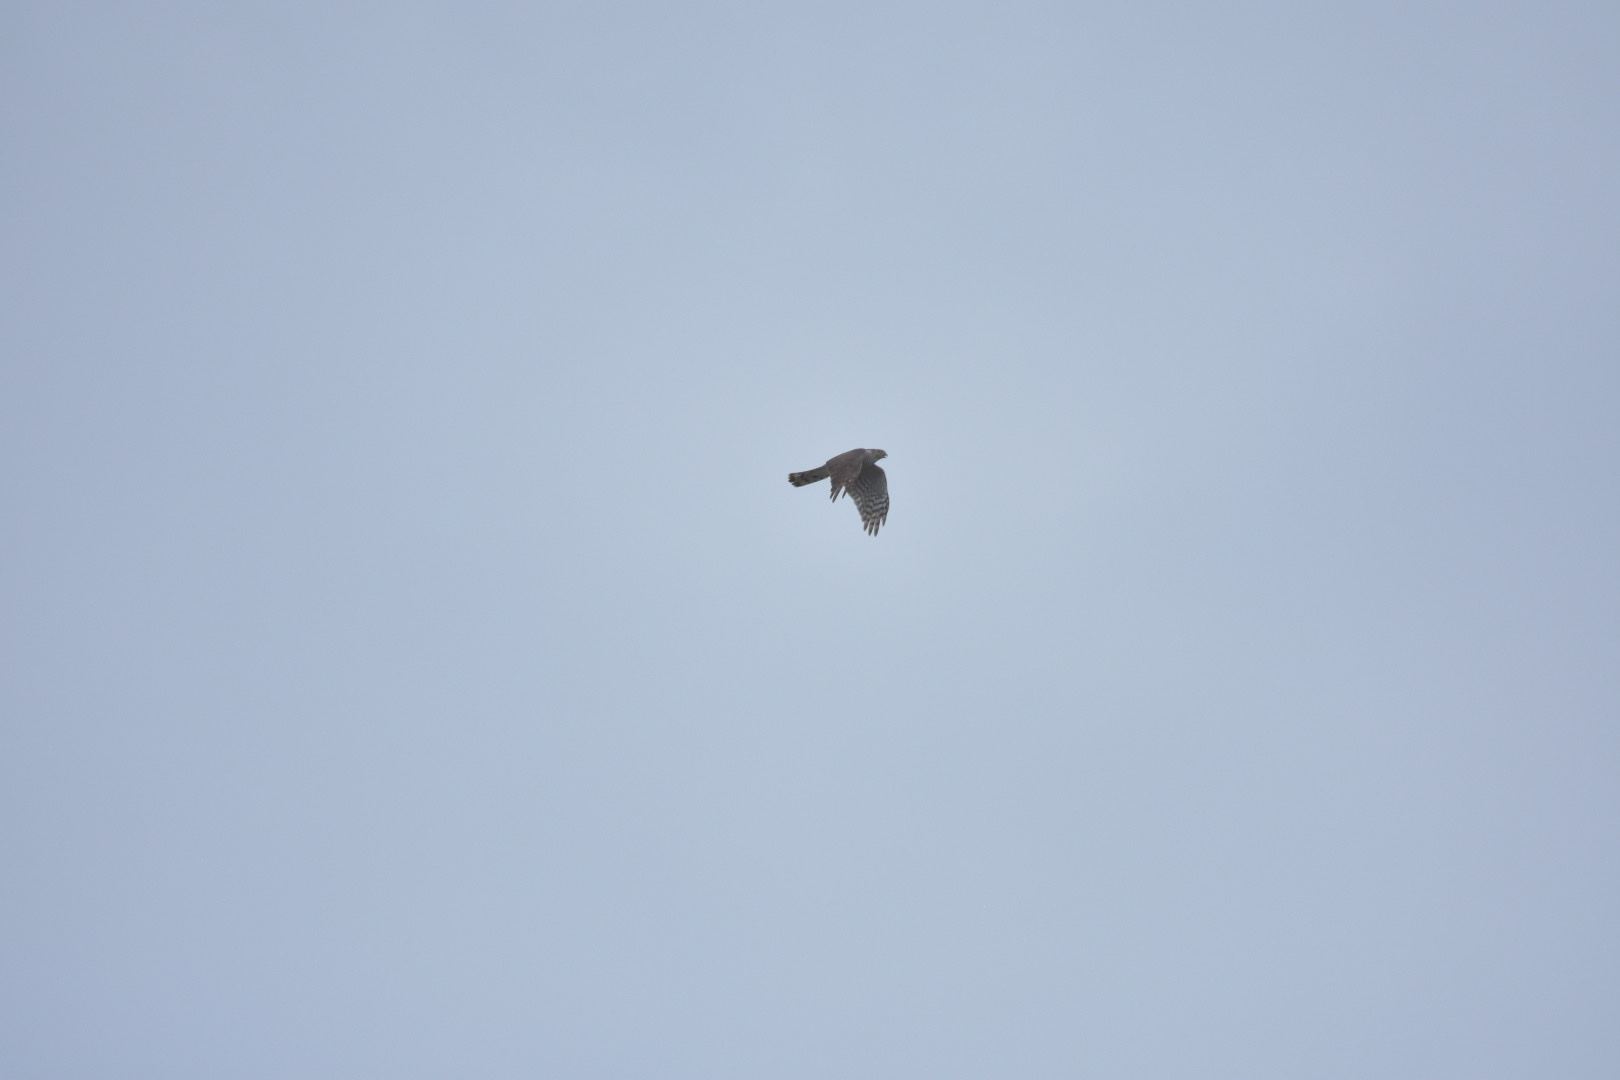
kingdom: Animalia
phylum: Chordata
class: Aves
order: Accipitriformes
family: Accipitridae
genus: Accipiter
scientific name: Accipiter nisus
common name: Eurasian sparrowhawk
